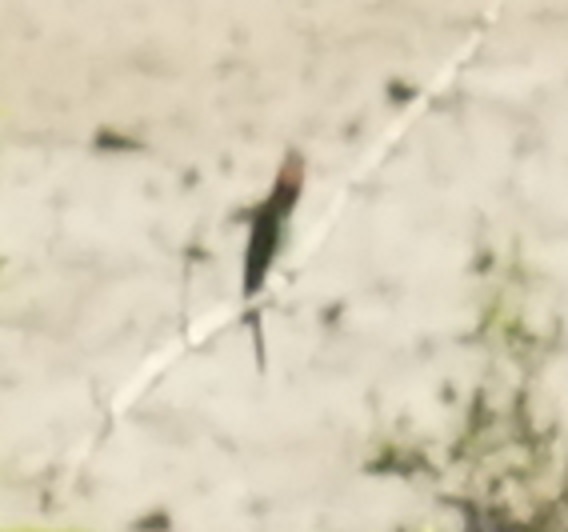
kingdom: Animalia
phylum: Chordata
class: Aves
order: Coraciiformes
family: Meropidae
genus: Merops
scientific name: Merops viridis
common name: Blue-throated bee-eater
